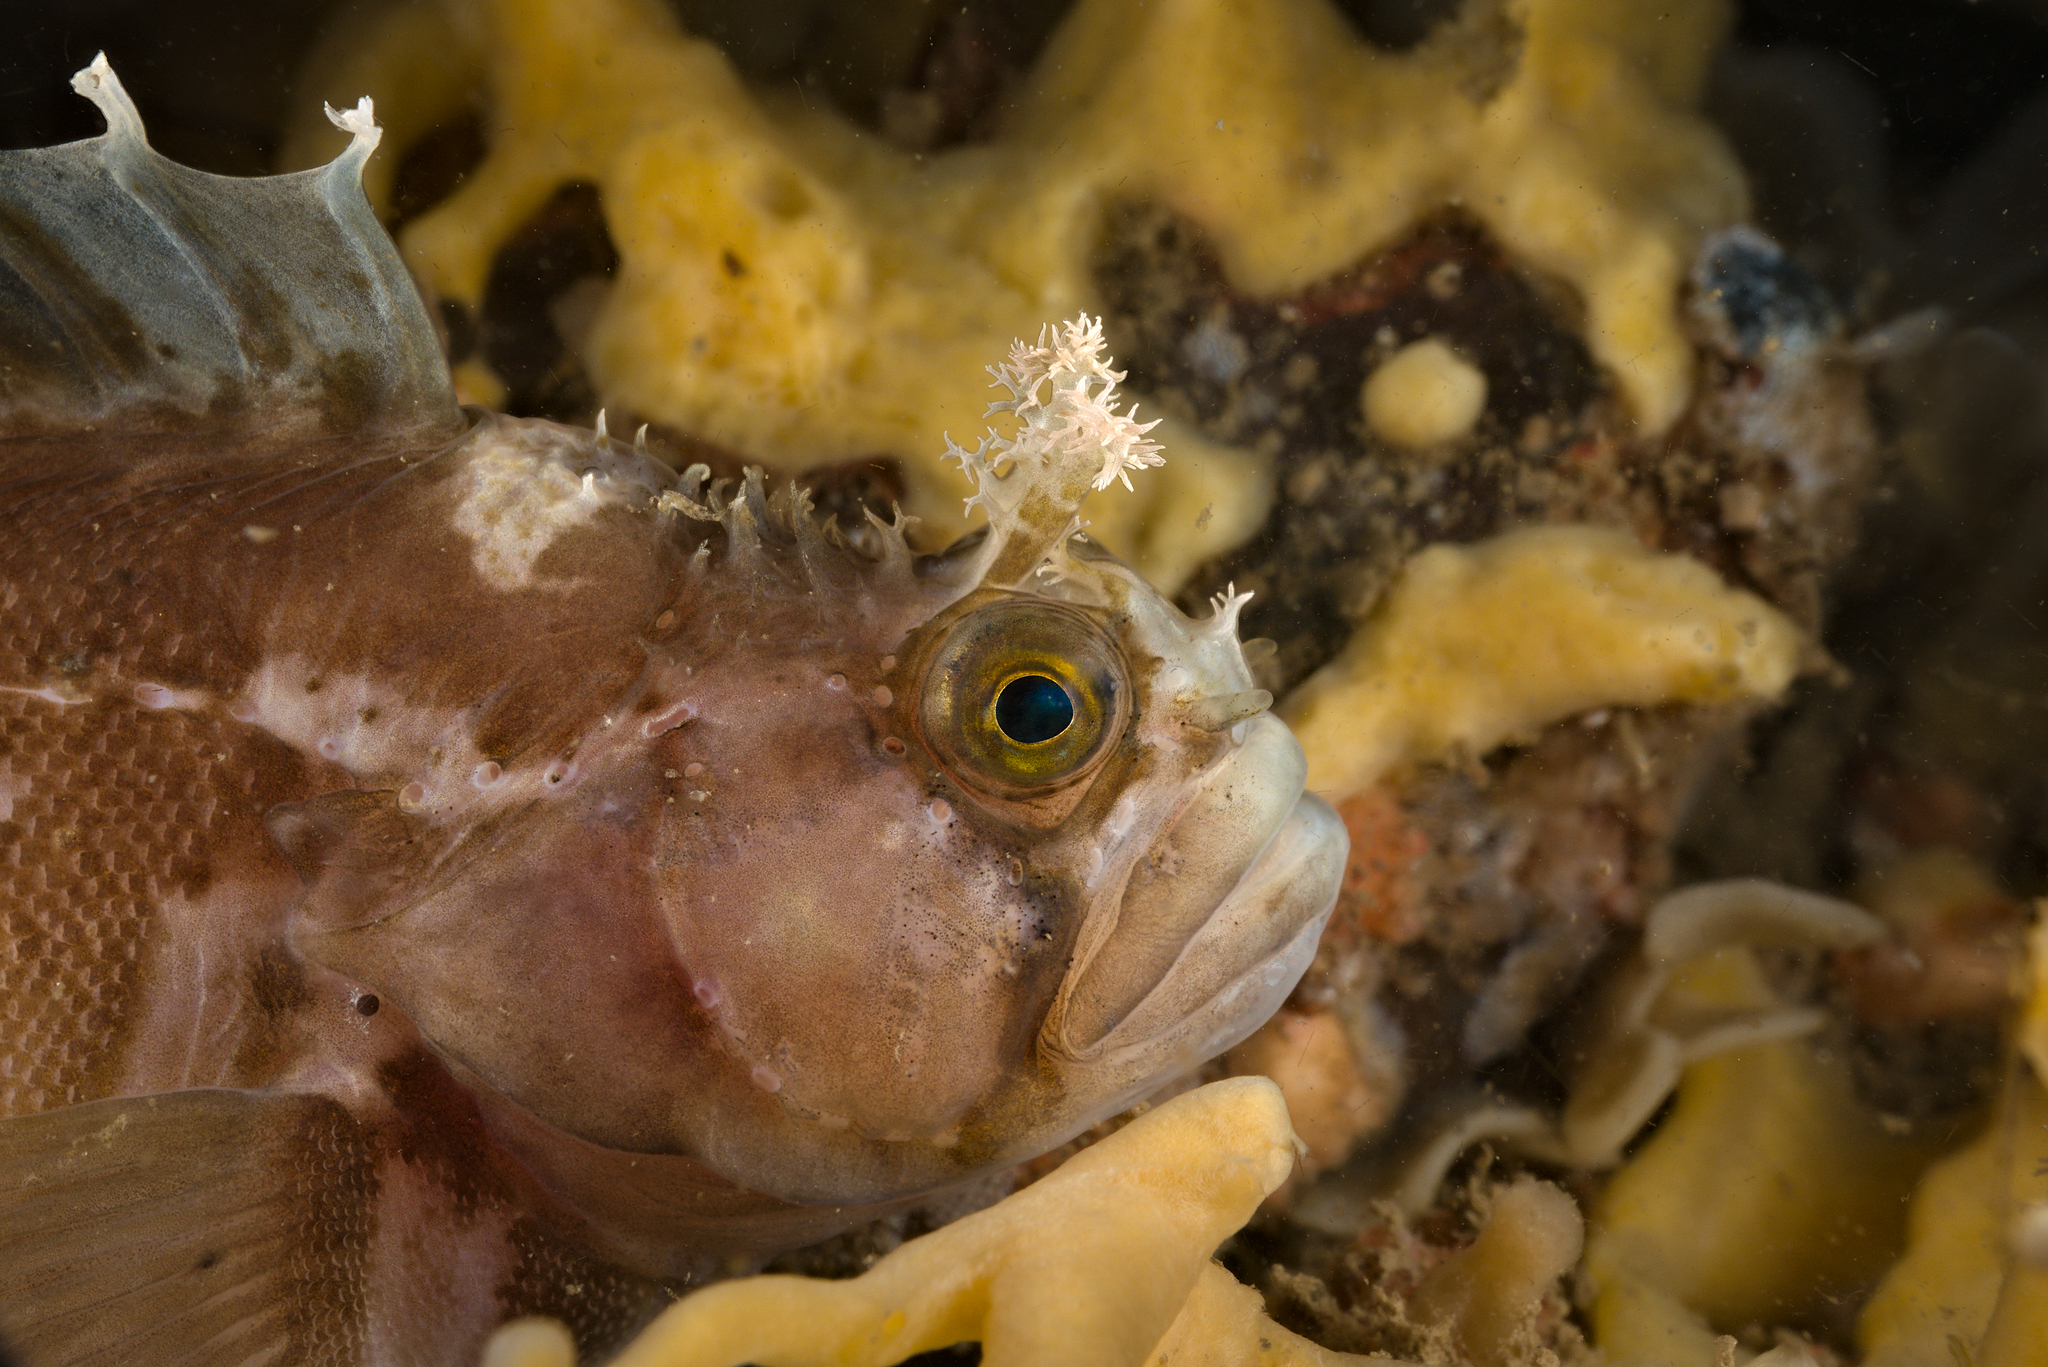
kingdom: Animalia
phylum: Chordata
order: Perciformes
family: Stichaeidae
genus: Chirolophis
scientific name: Chirolophis ascanii
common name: Yarrell's blenny
